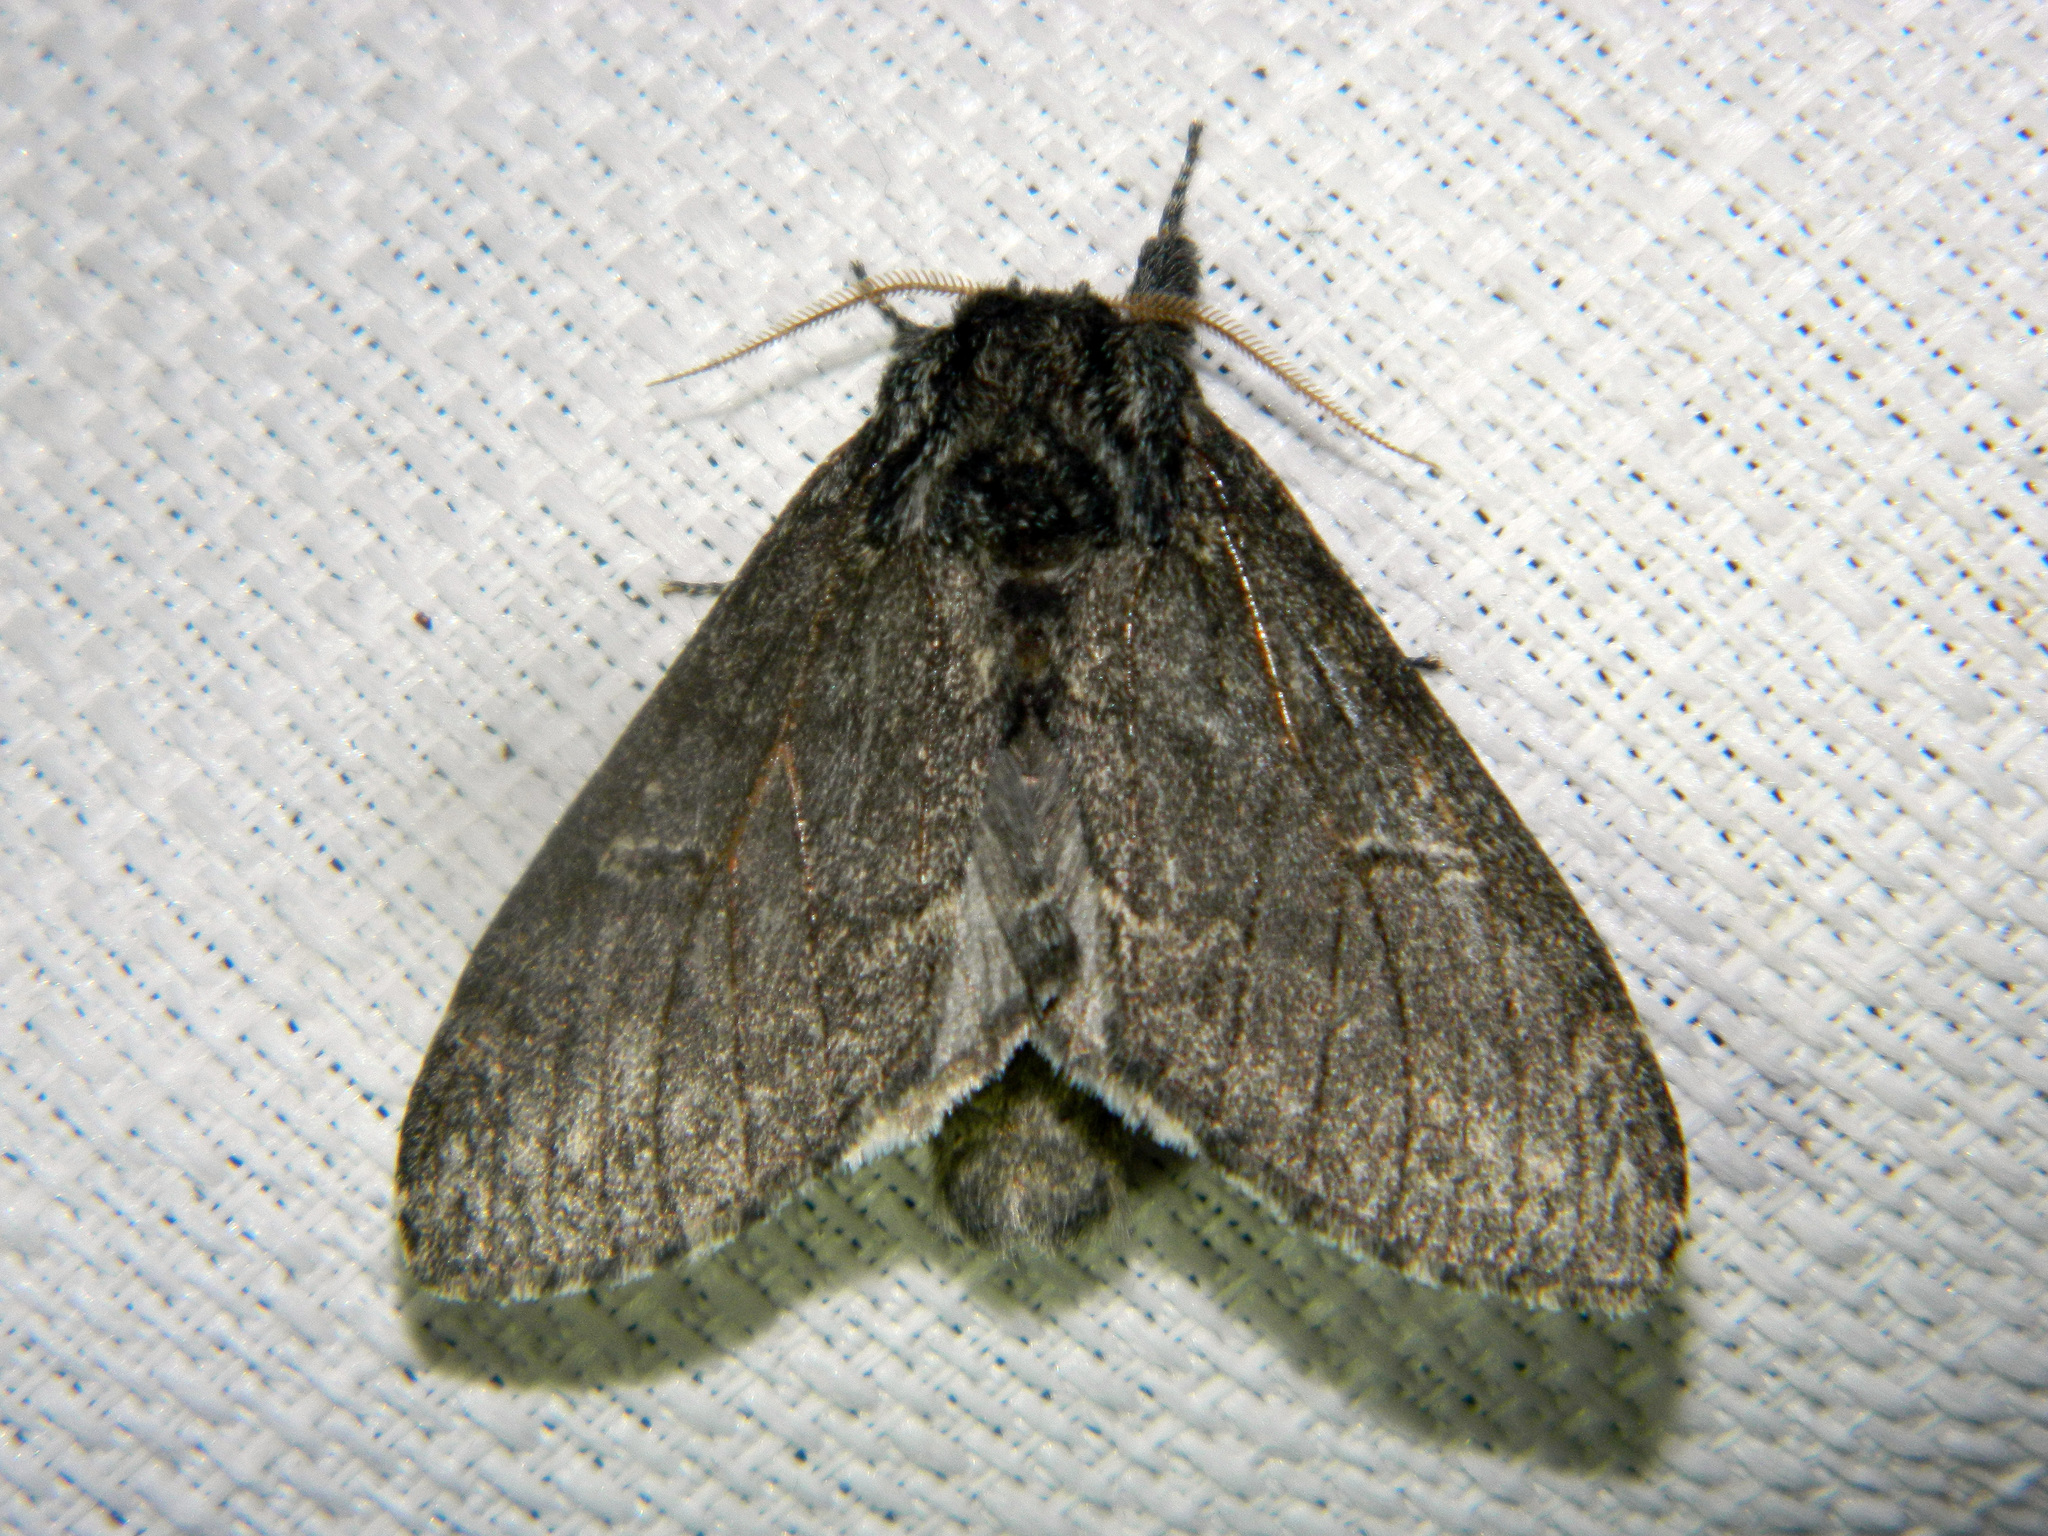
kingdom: Animalia
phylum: Arthropoda
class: Insecta
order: Lepidoptera
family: Notodontidae
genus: Notodonta
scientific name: Notodonta torva
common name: Large dark prominent
